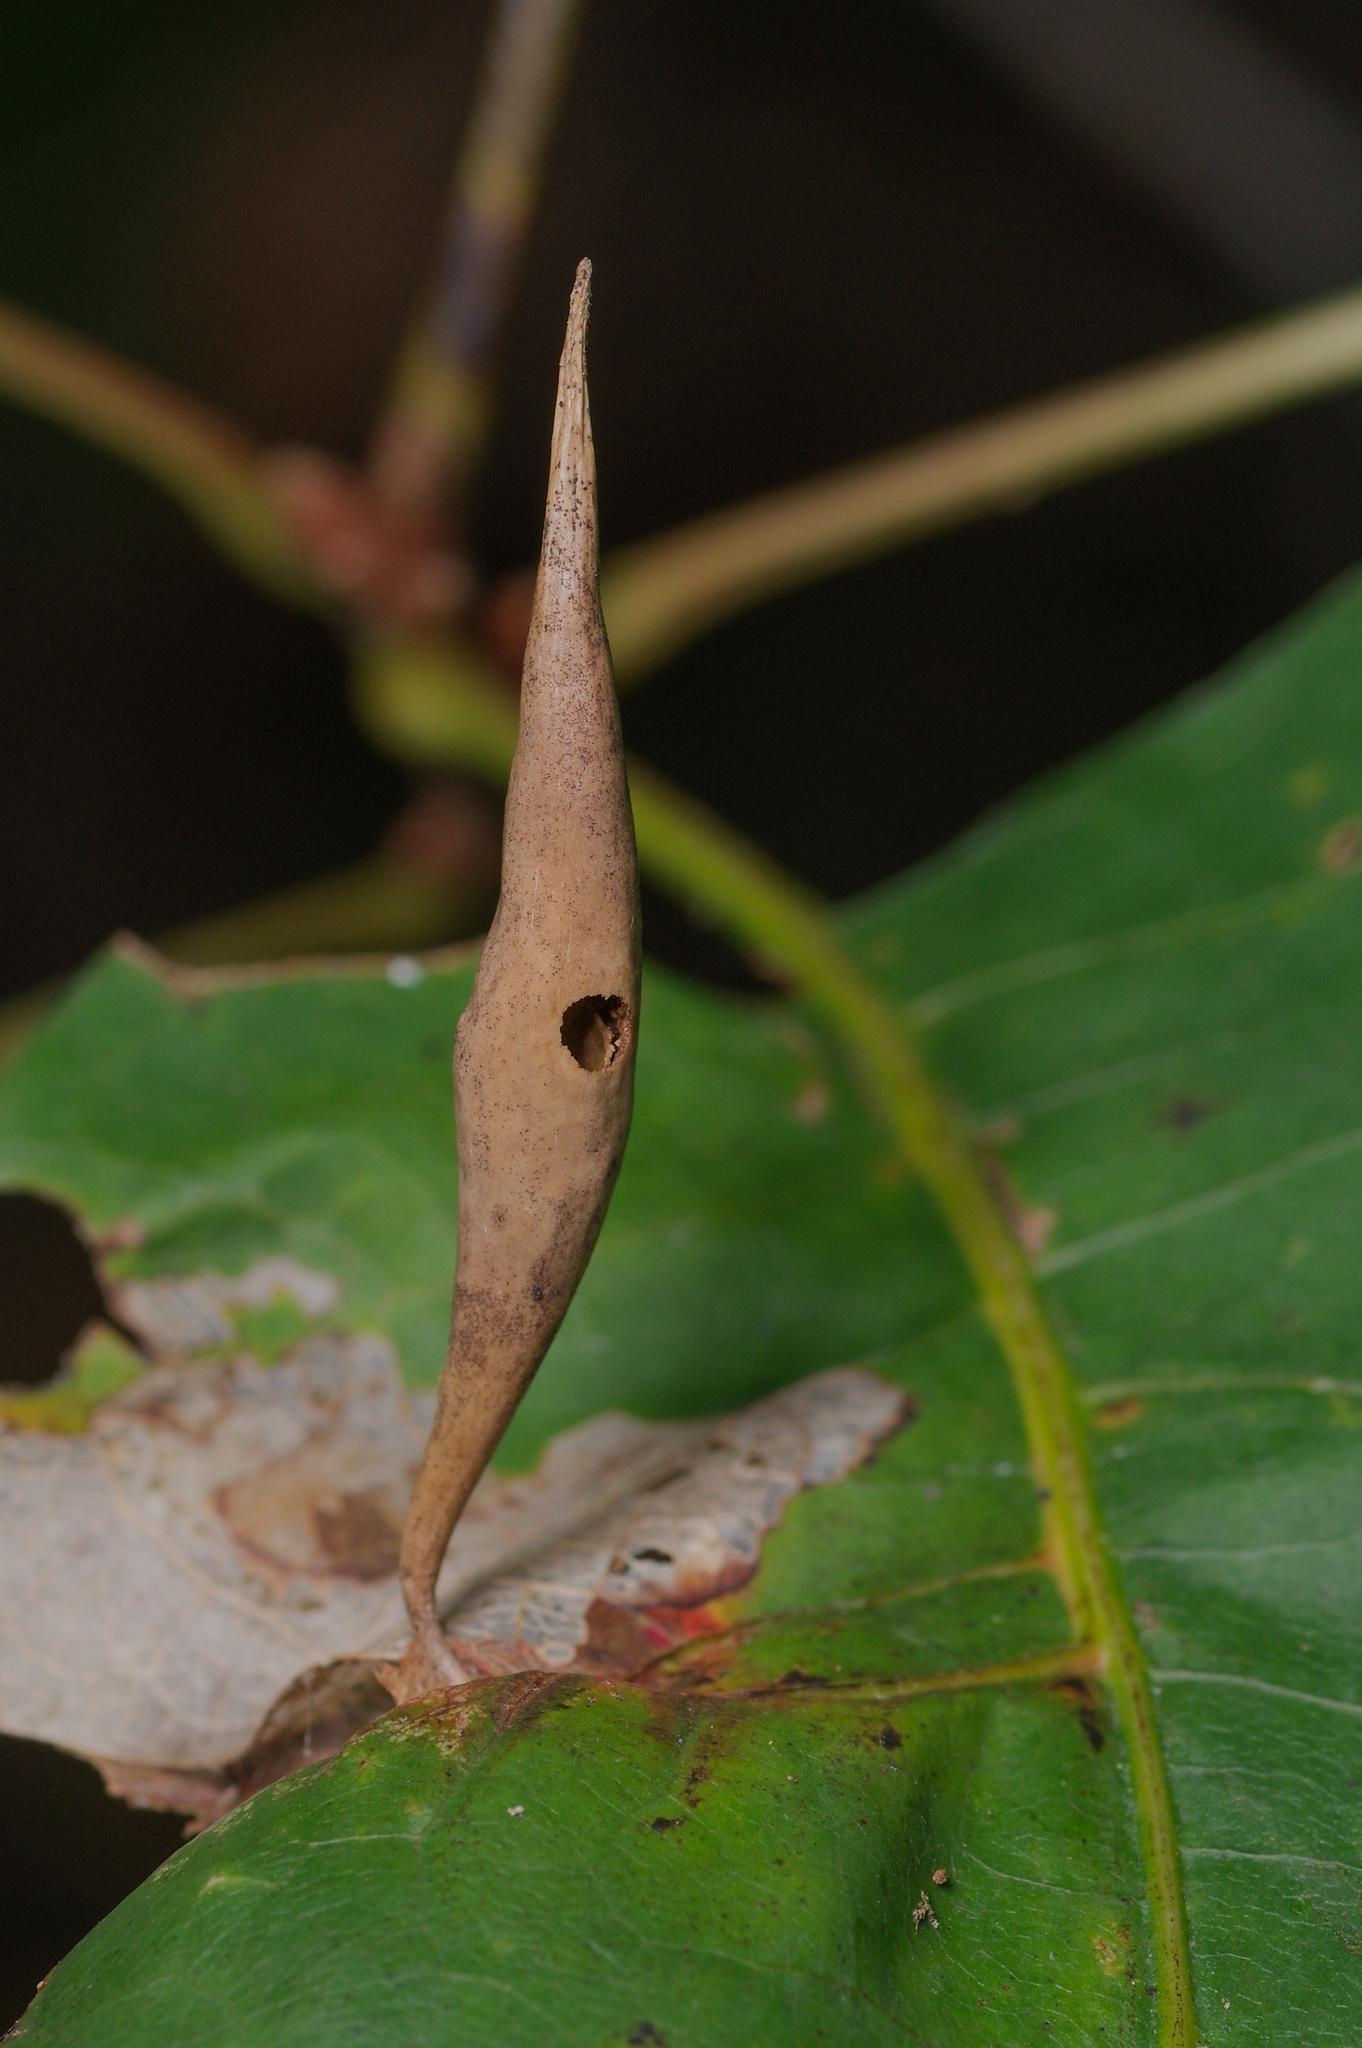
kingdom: Animalia
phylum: Arthropoda
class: Insecta
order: Hymenoptera
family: Cynipidae
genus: Amphibolips
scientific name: Amphibolips
